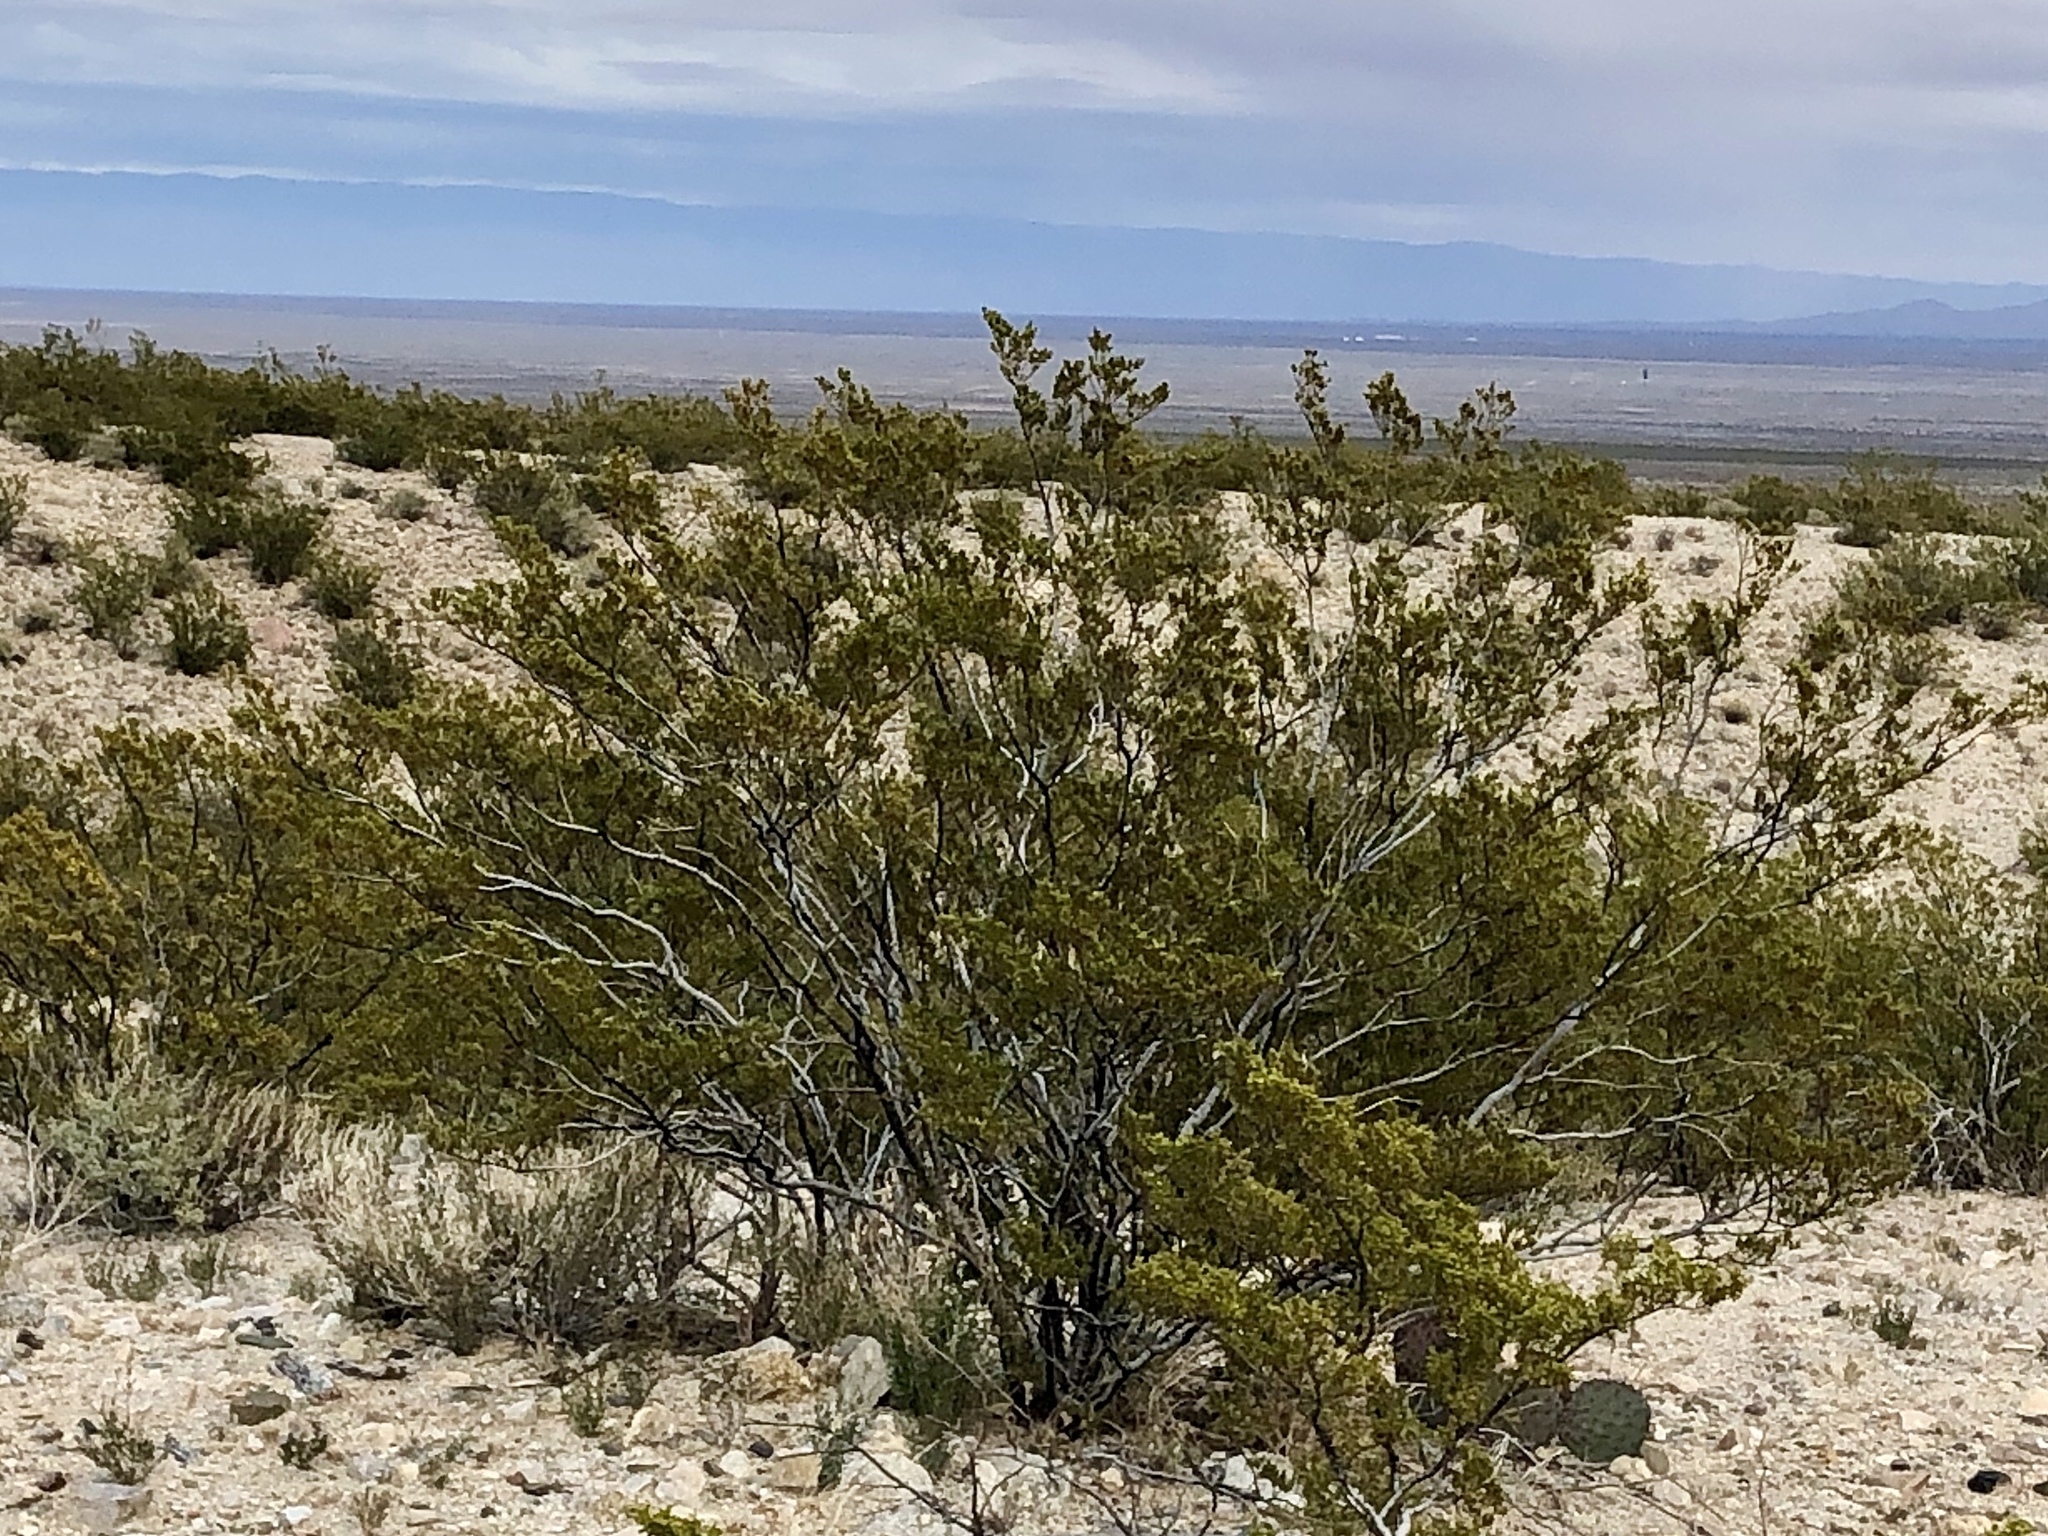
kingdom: Plantae
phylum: Tracheophyta
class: Magnoliopsida
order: Zygophyllales
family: Zygophyllaceae
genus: Larrea
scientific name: Larrea tridentata
